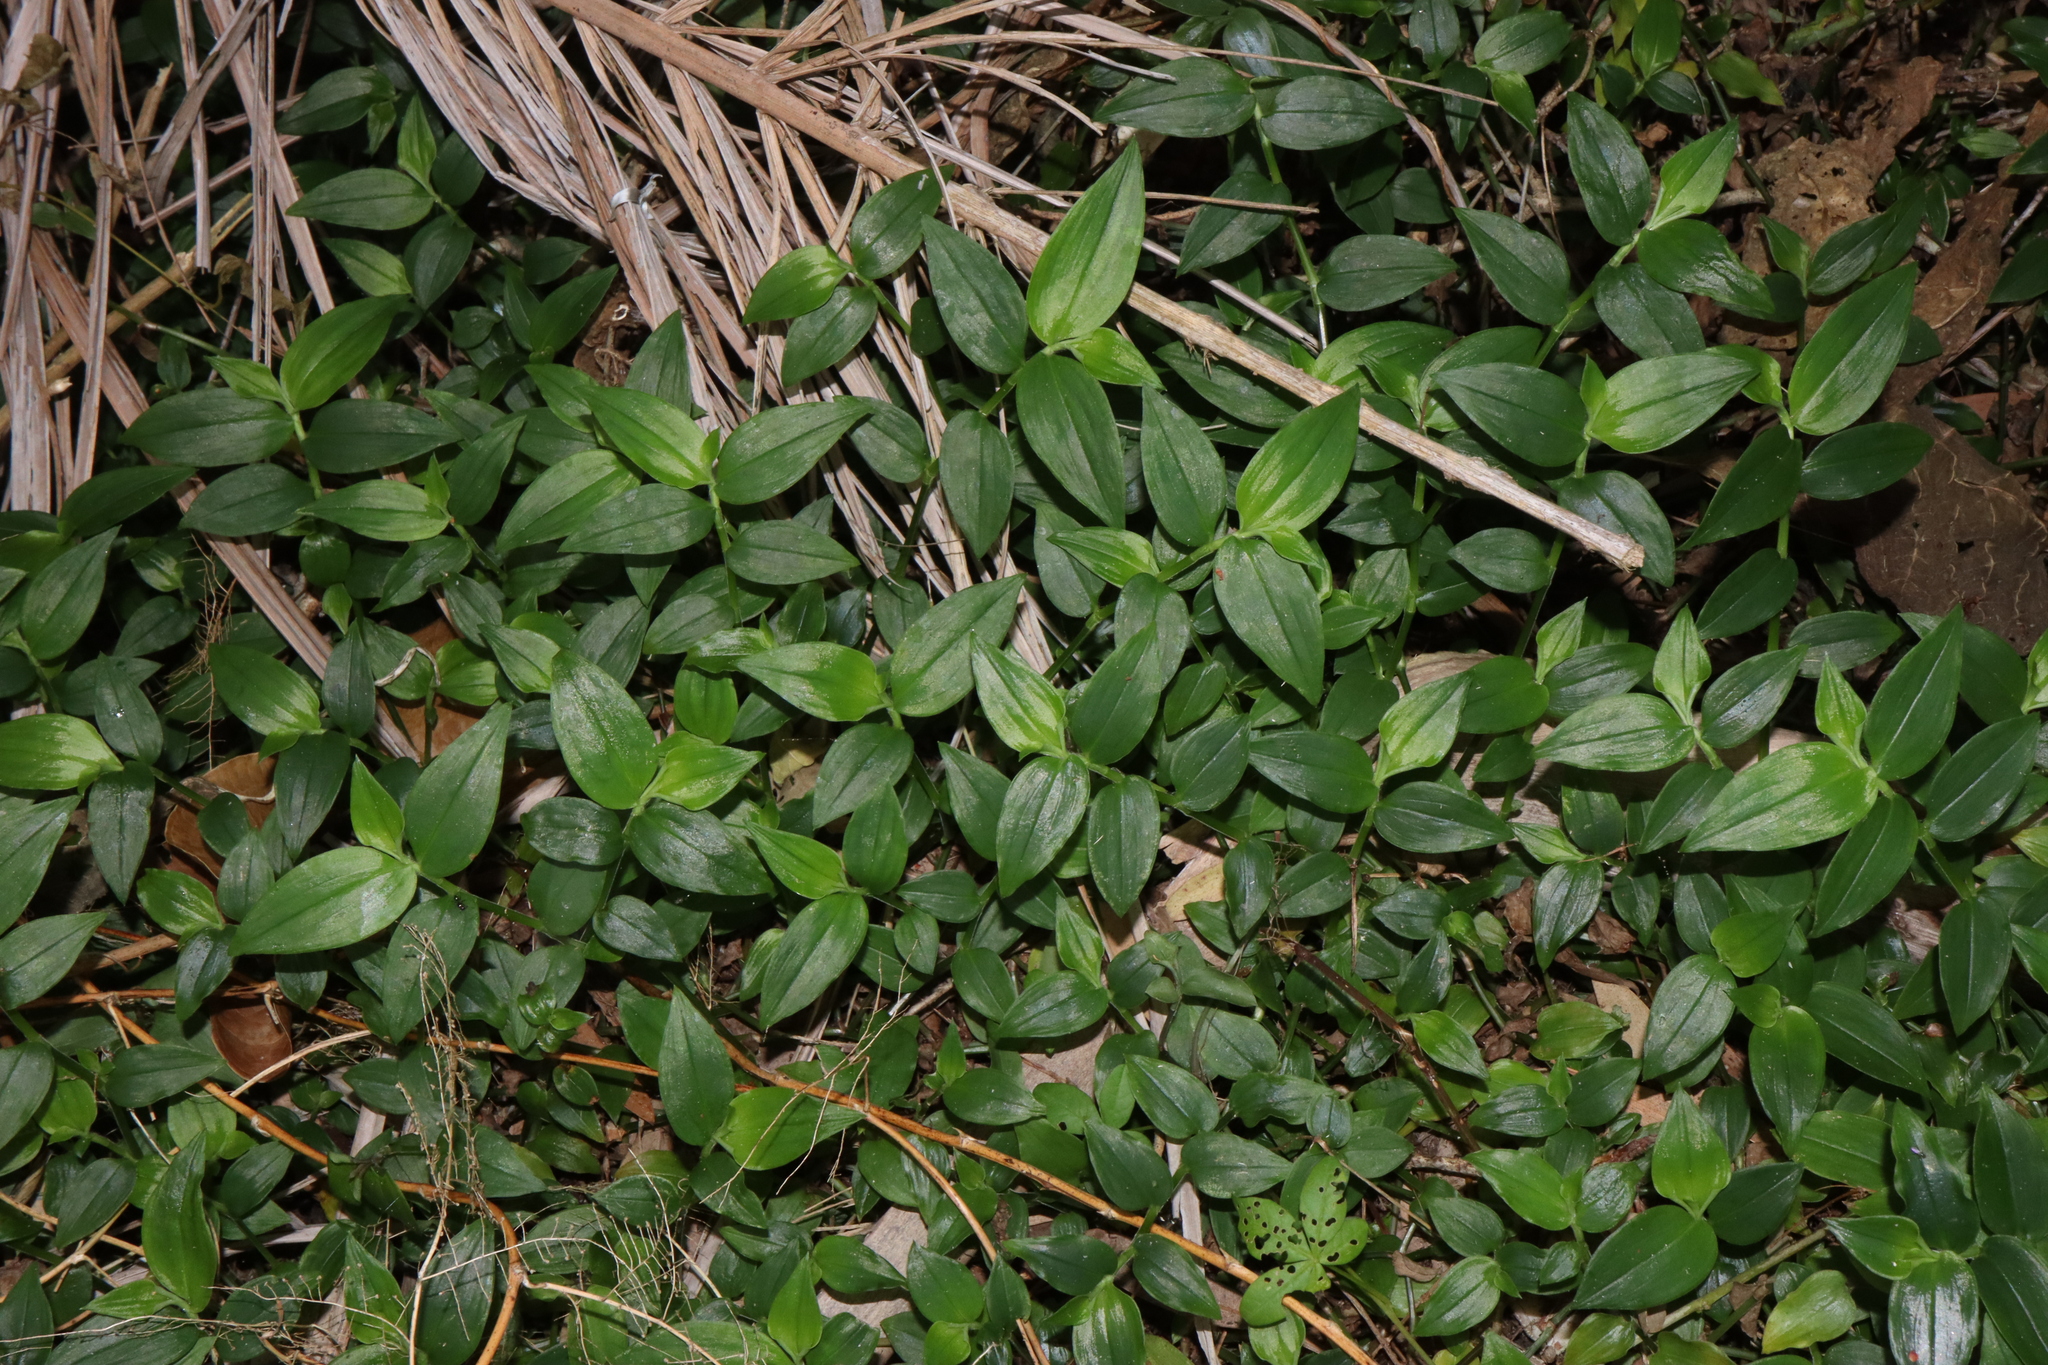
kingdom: Plantae
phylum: Tracheophyta
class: Liliopsida
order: Commelinales
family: Commelinaceae
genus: Tradescantia
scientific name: Tradescantia fluminensis
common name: Wandering-jew
